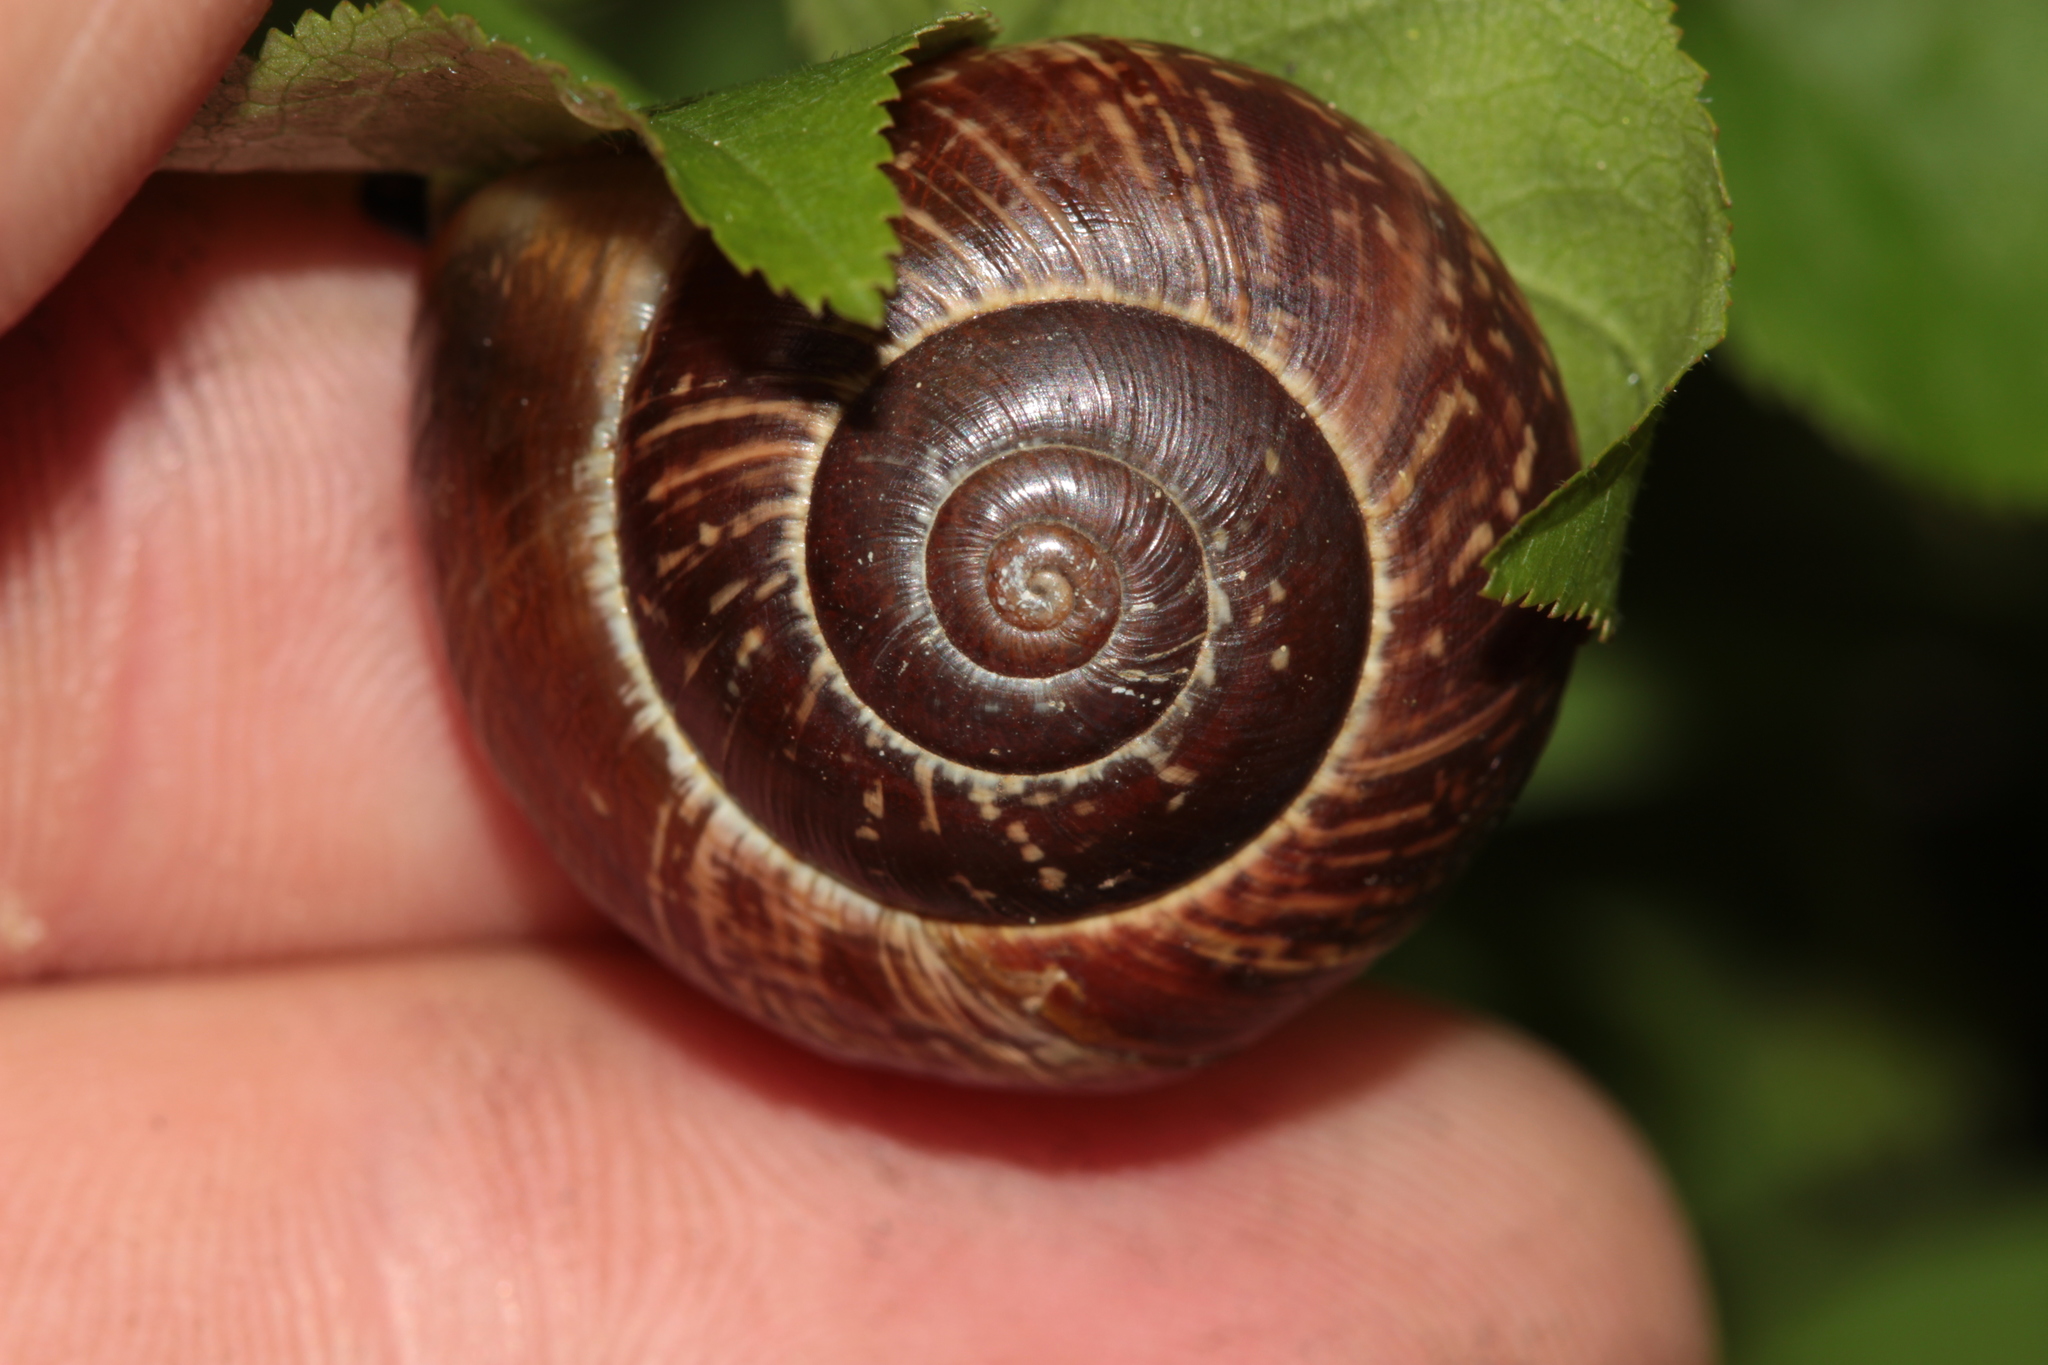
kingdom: Animalia
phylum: Mollusca
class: Gastropoda
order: Stylommatophora
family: Helicidae
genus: Arianta
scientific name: Arianta arbustorum
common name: Copse snail
